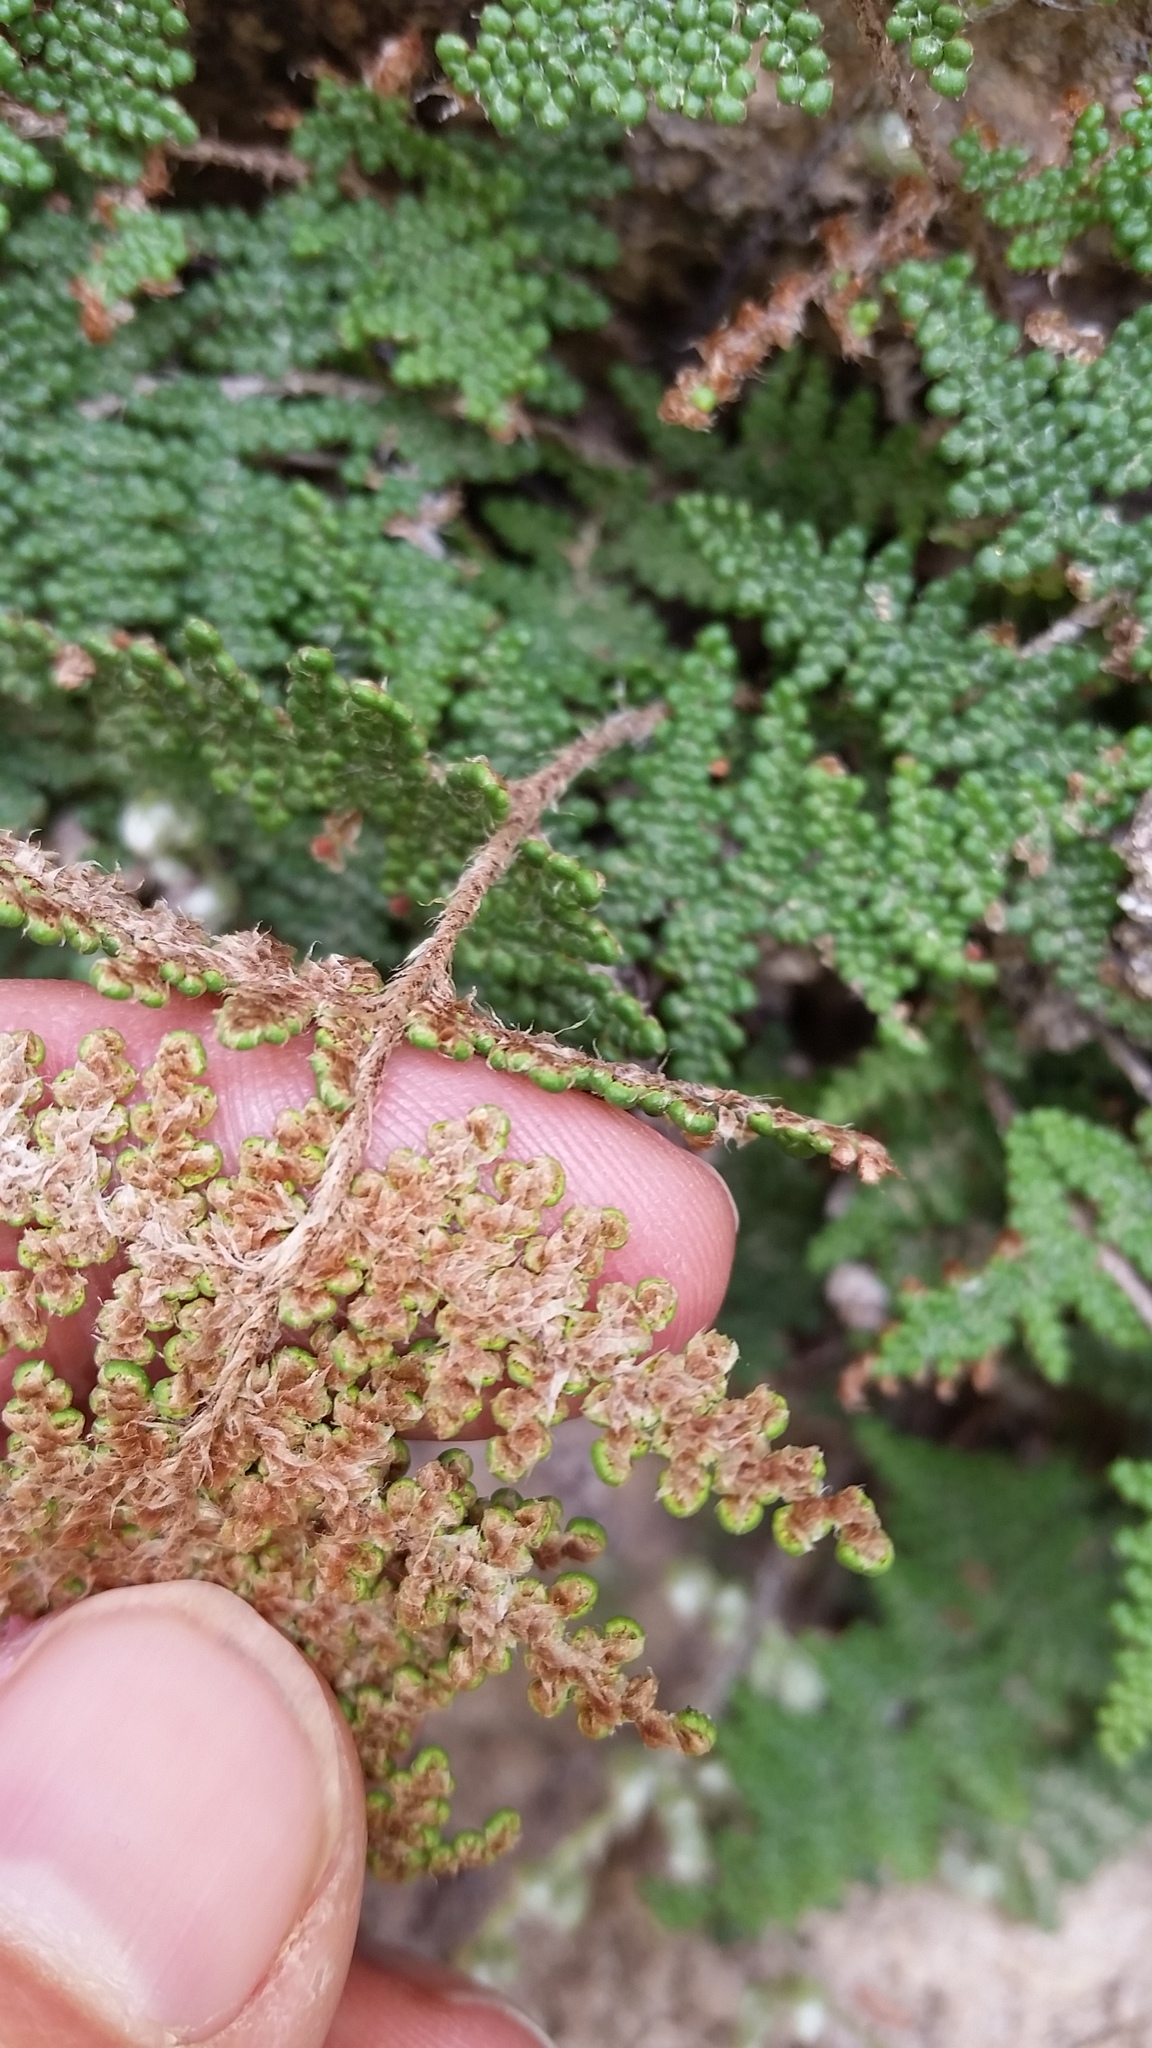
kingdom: Plantae
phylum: Tracheophyta
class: Polypodiopsida
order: Polypodiales
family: Pteridaceae
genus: Myriopteris
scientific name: Myriopteris covillei
